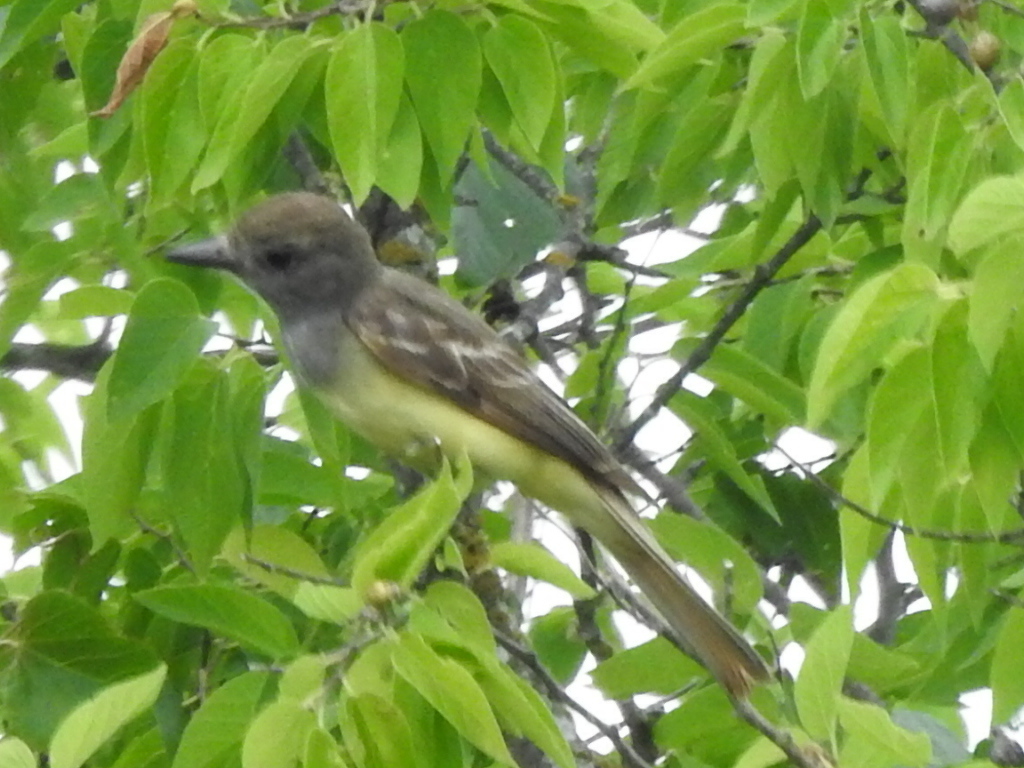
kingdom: Animalia
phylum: Chordata
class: Aves
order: Passeriformes
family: Tyrannidae
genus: Myiarchus
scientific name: Myiarchus crinitus
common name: Great crested flycatcher
